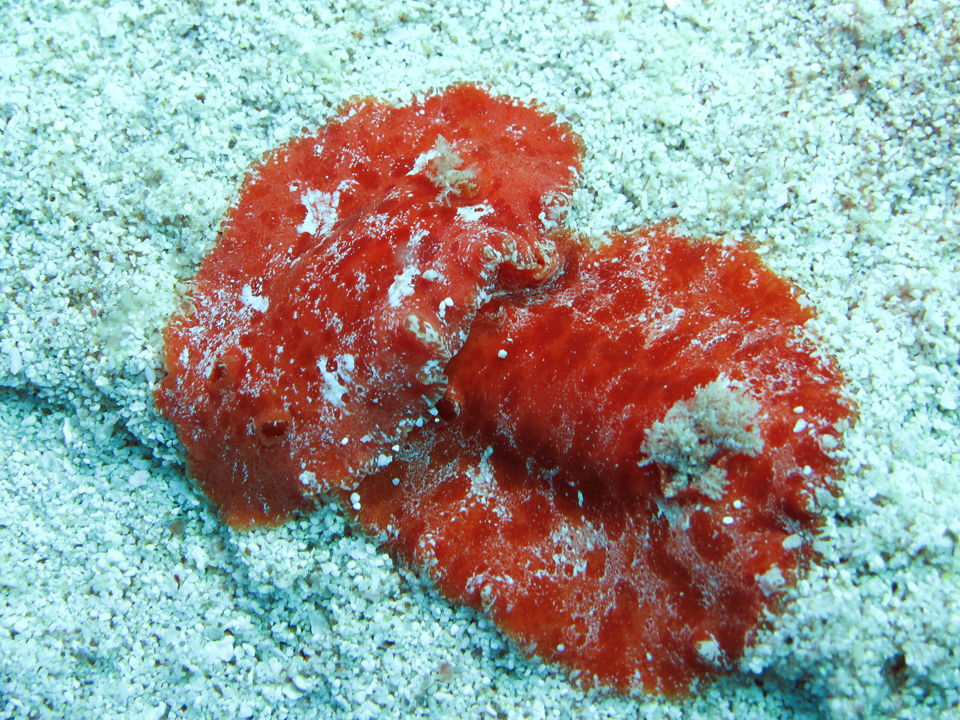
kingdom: Animalia
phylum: Mollusca
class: Gastropoda
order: Nudibranchia
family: Discodorididae
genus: Platydoris
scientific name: Platydoris angustipes
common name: Broleather-backed platydoris
